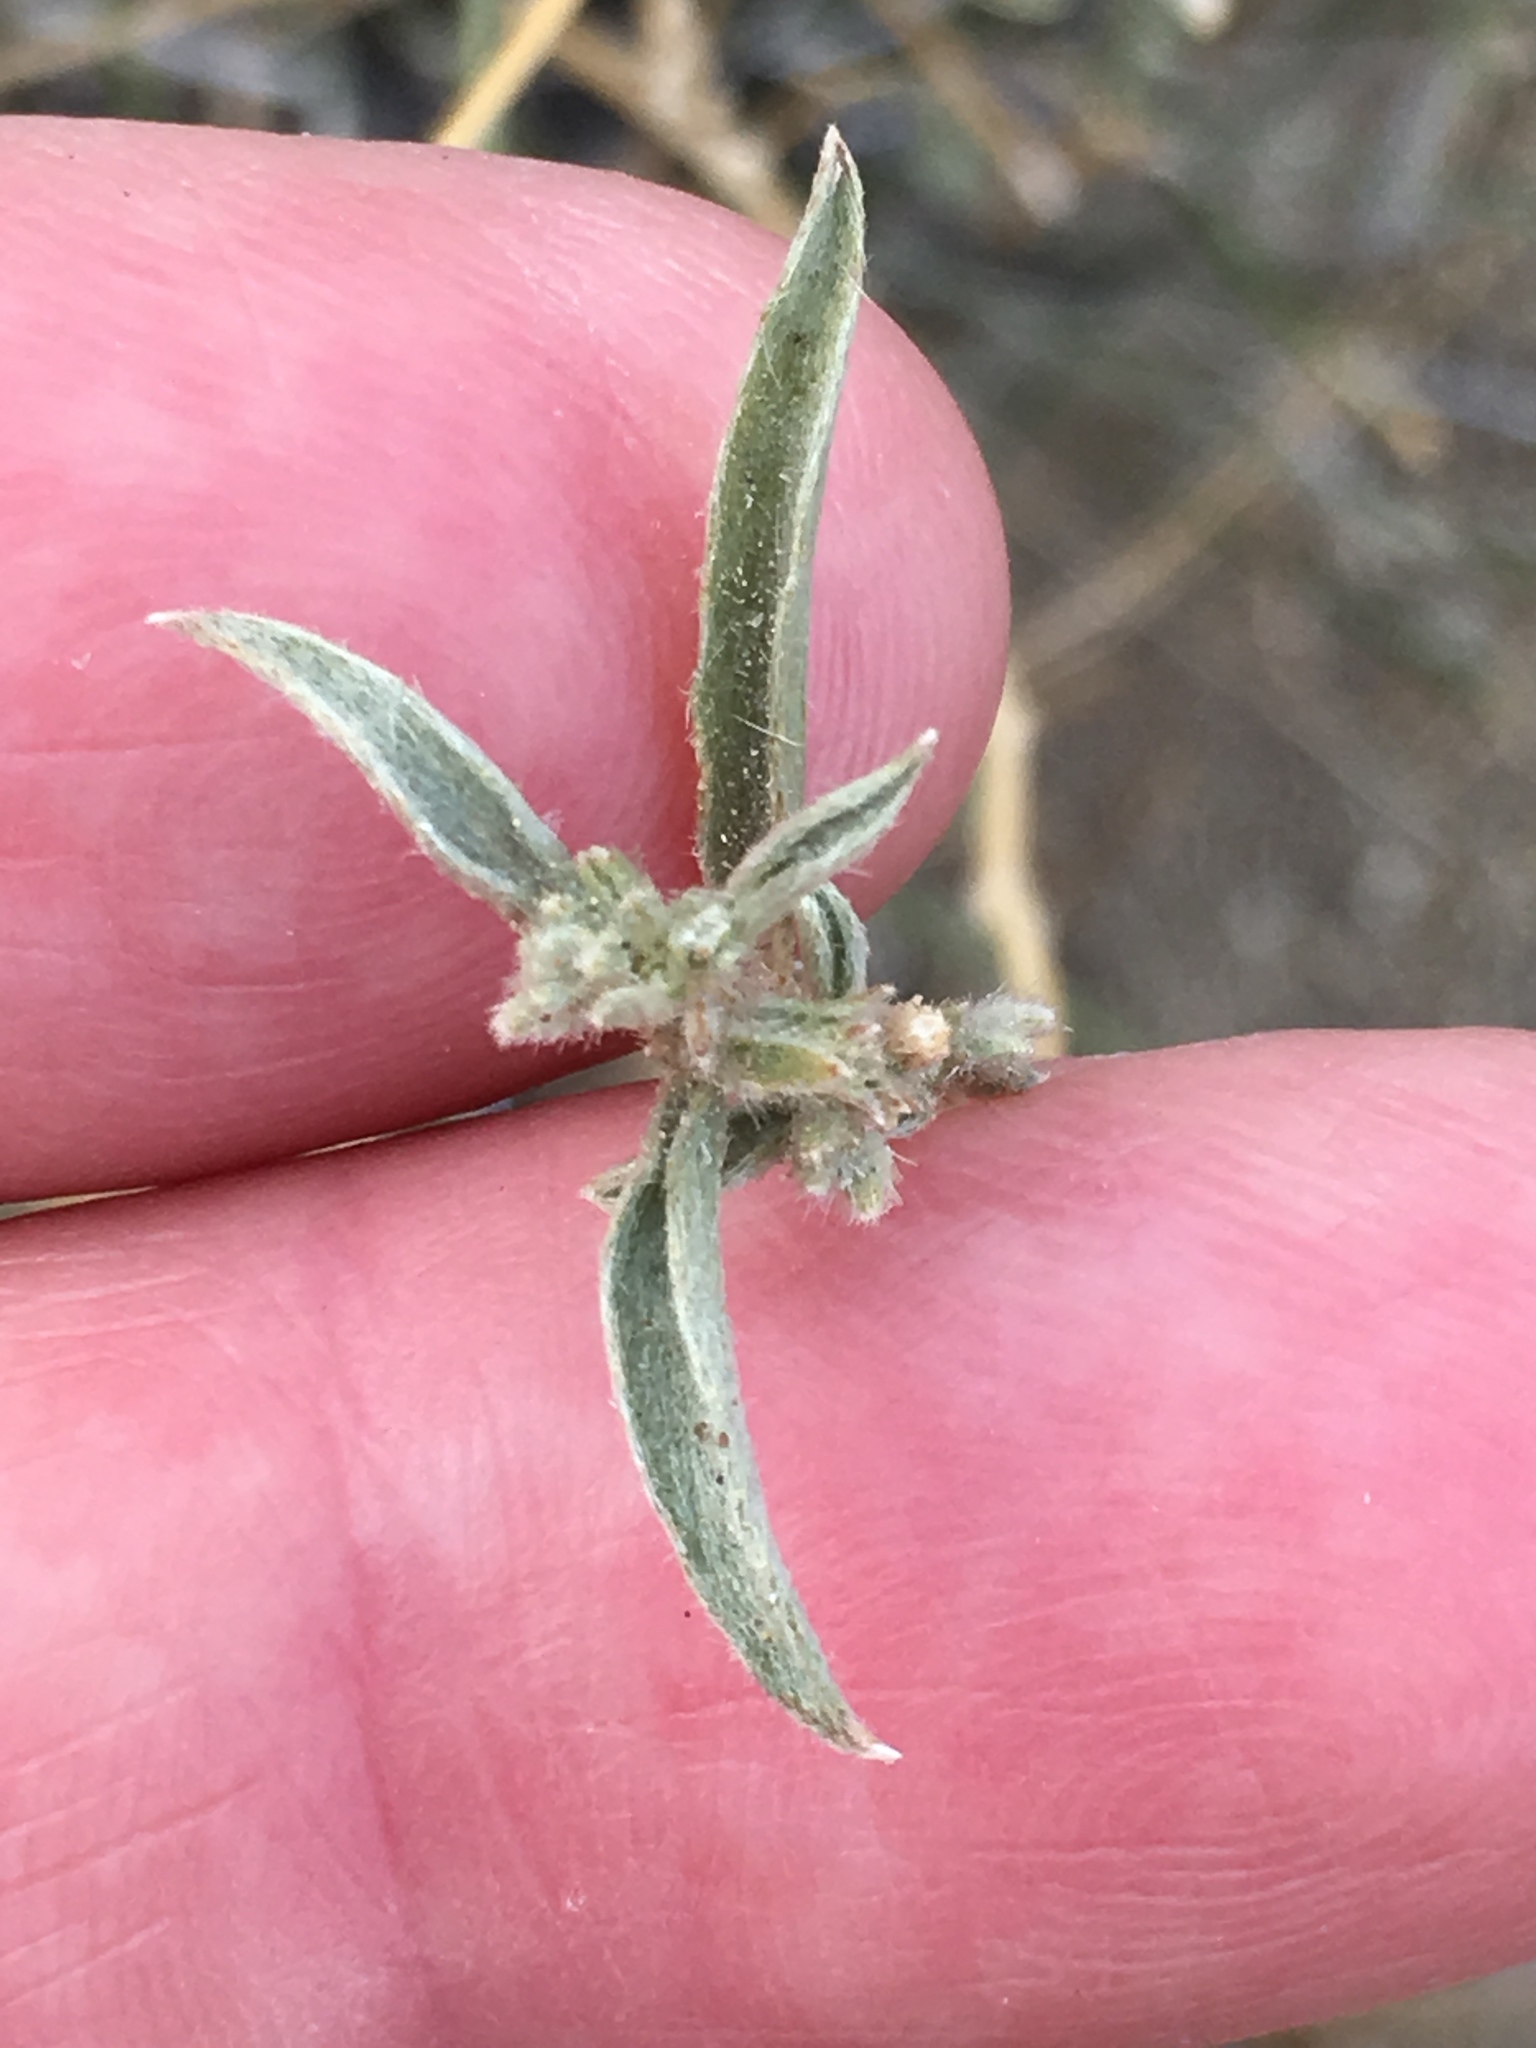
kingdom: Plantae
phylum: Tracheophyta
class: Magnoliopsida
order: Malpighiales
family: Euphorbiaceae
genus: Ditaxis
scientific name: Ditaxis lanceolata
